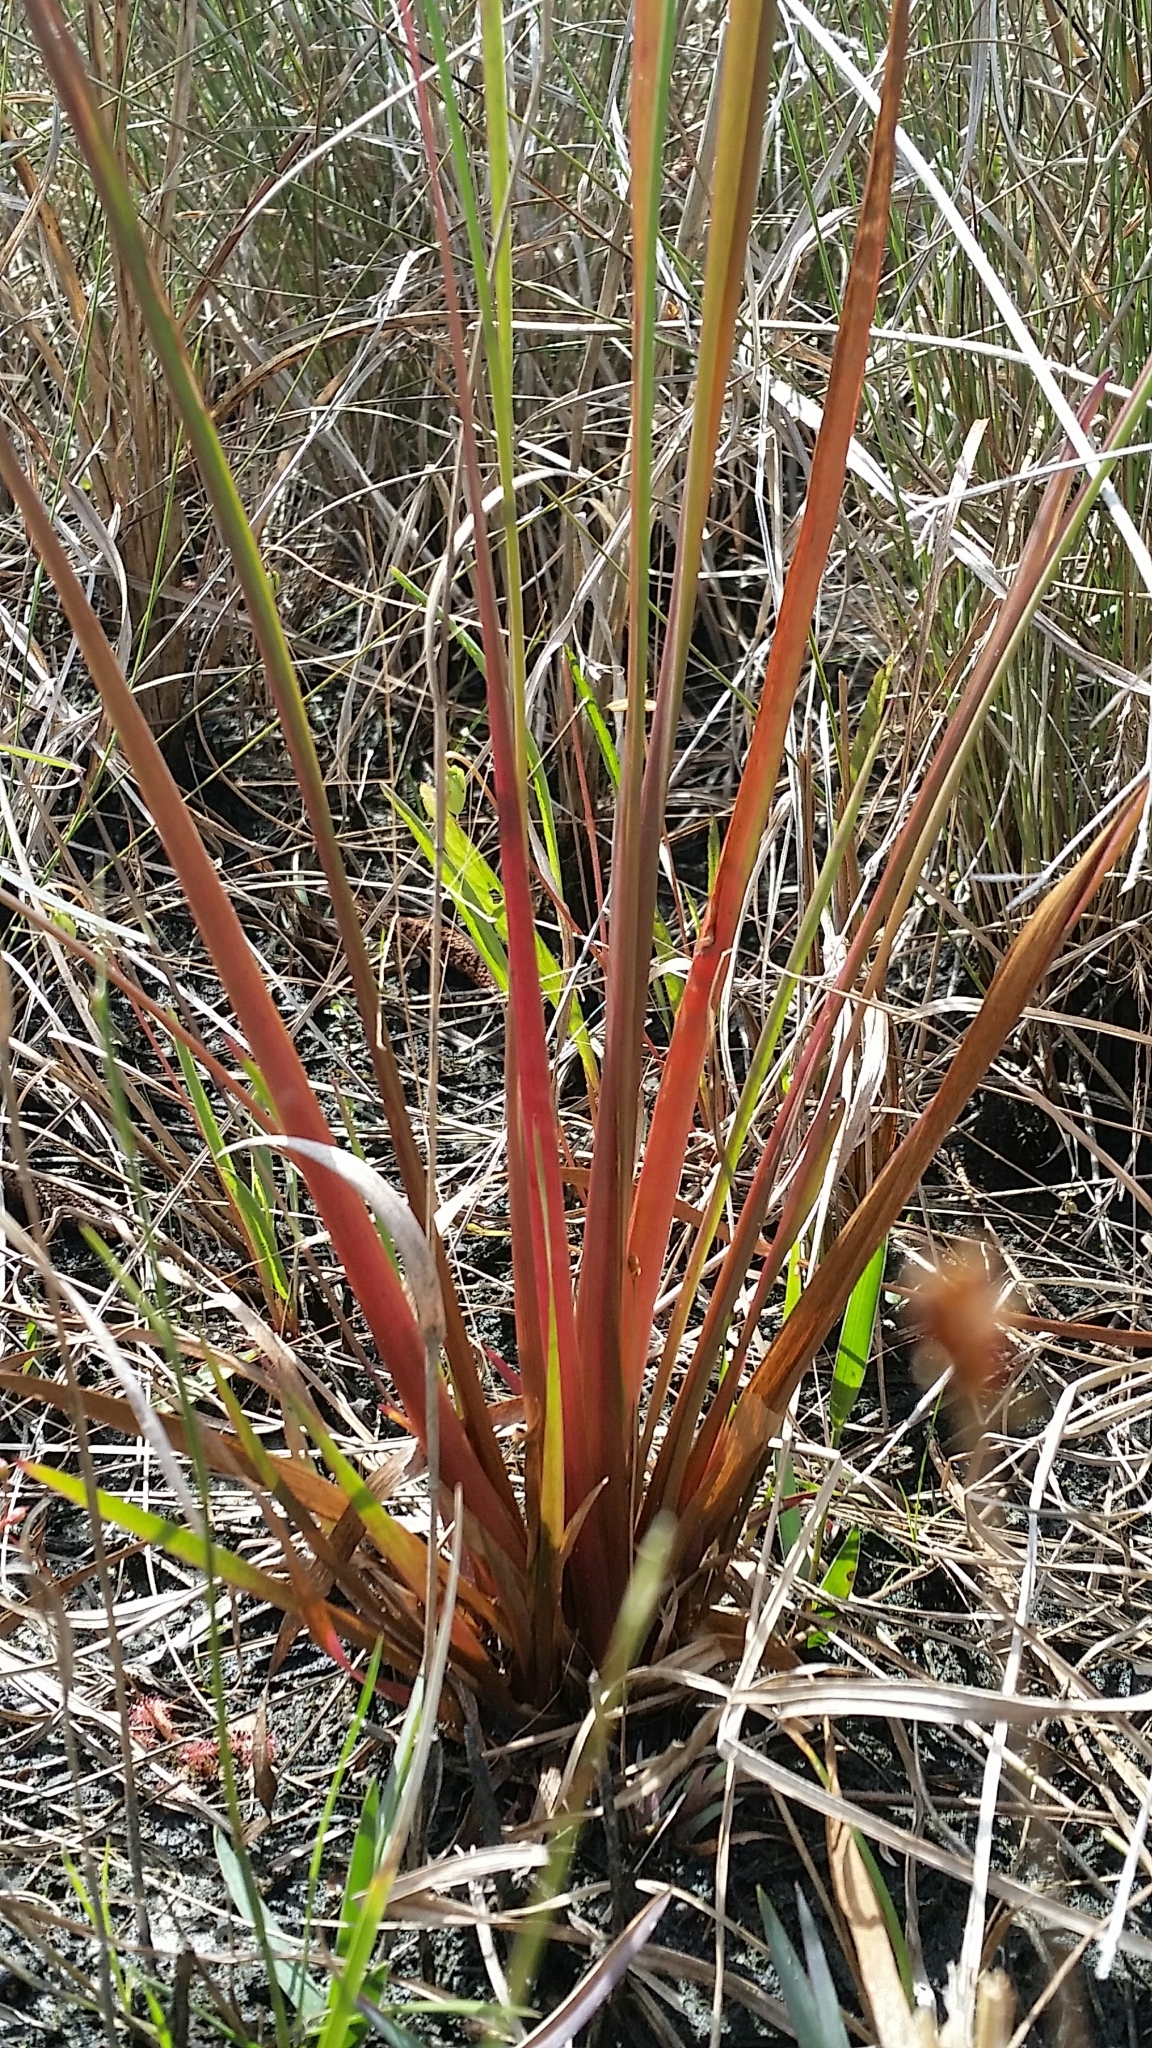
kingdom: Plantae
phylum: Tracheophyta
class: Liliopsida
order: Poales
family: Xyridaceae
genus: Xyris
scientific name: Xyris smalliana
